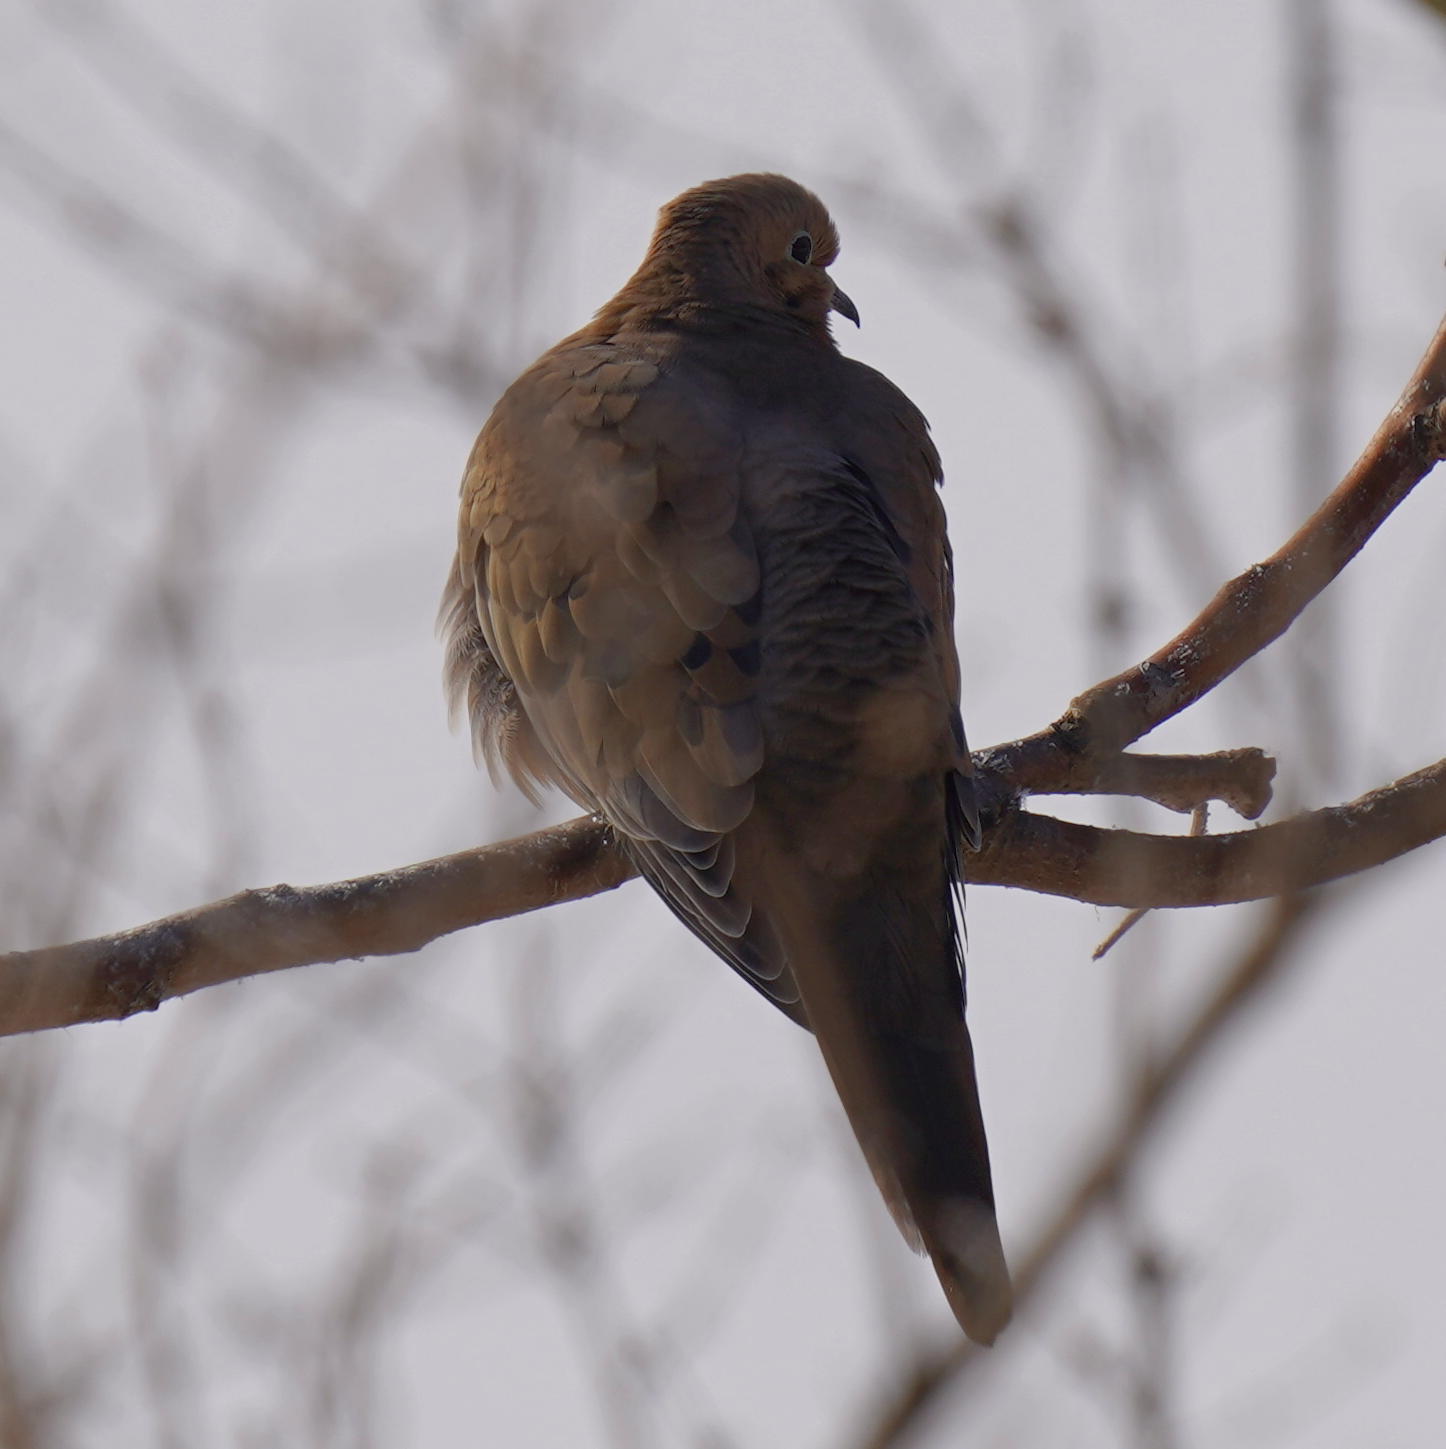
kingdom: Animalia
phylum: Chordata
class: Aves
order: Columbiformes
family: Columbidae
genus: Zenaida
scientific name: Zenaida macroura
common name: Mourning dove
